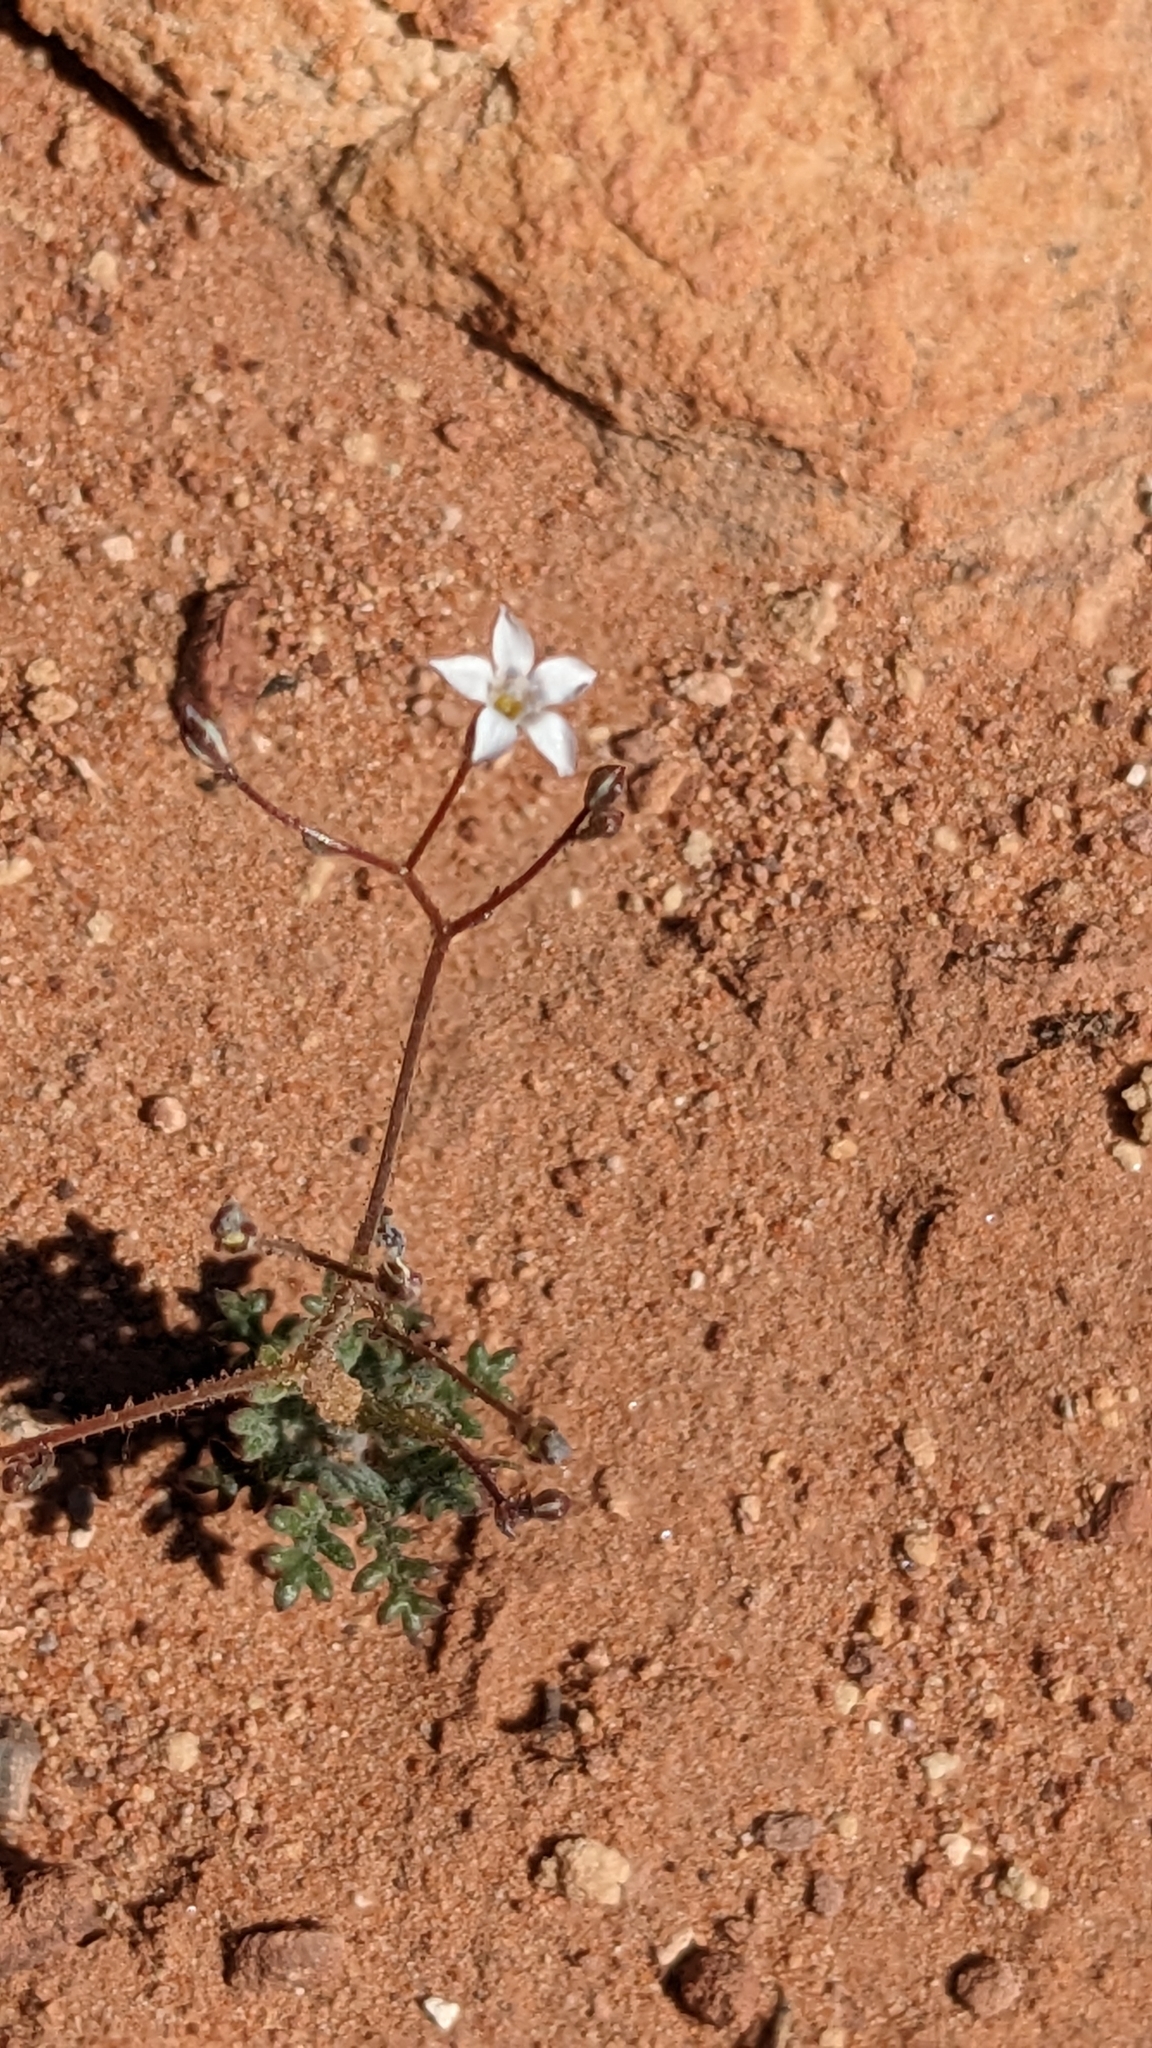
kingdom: Plantae
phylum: Tracheophyta
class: Magnoliopsida
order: Ericales
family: Polemoniaceae
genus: Gilia
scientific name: Gilia clokeyi
